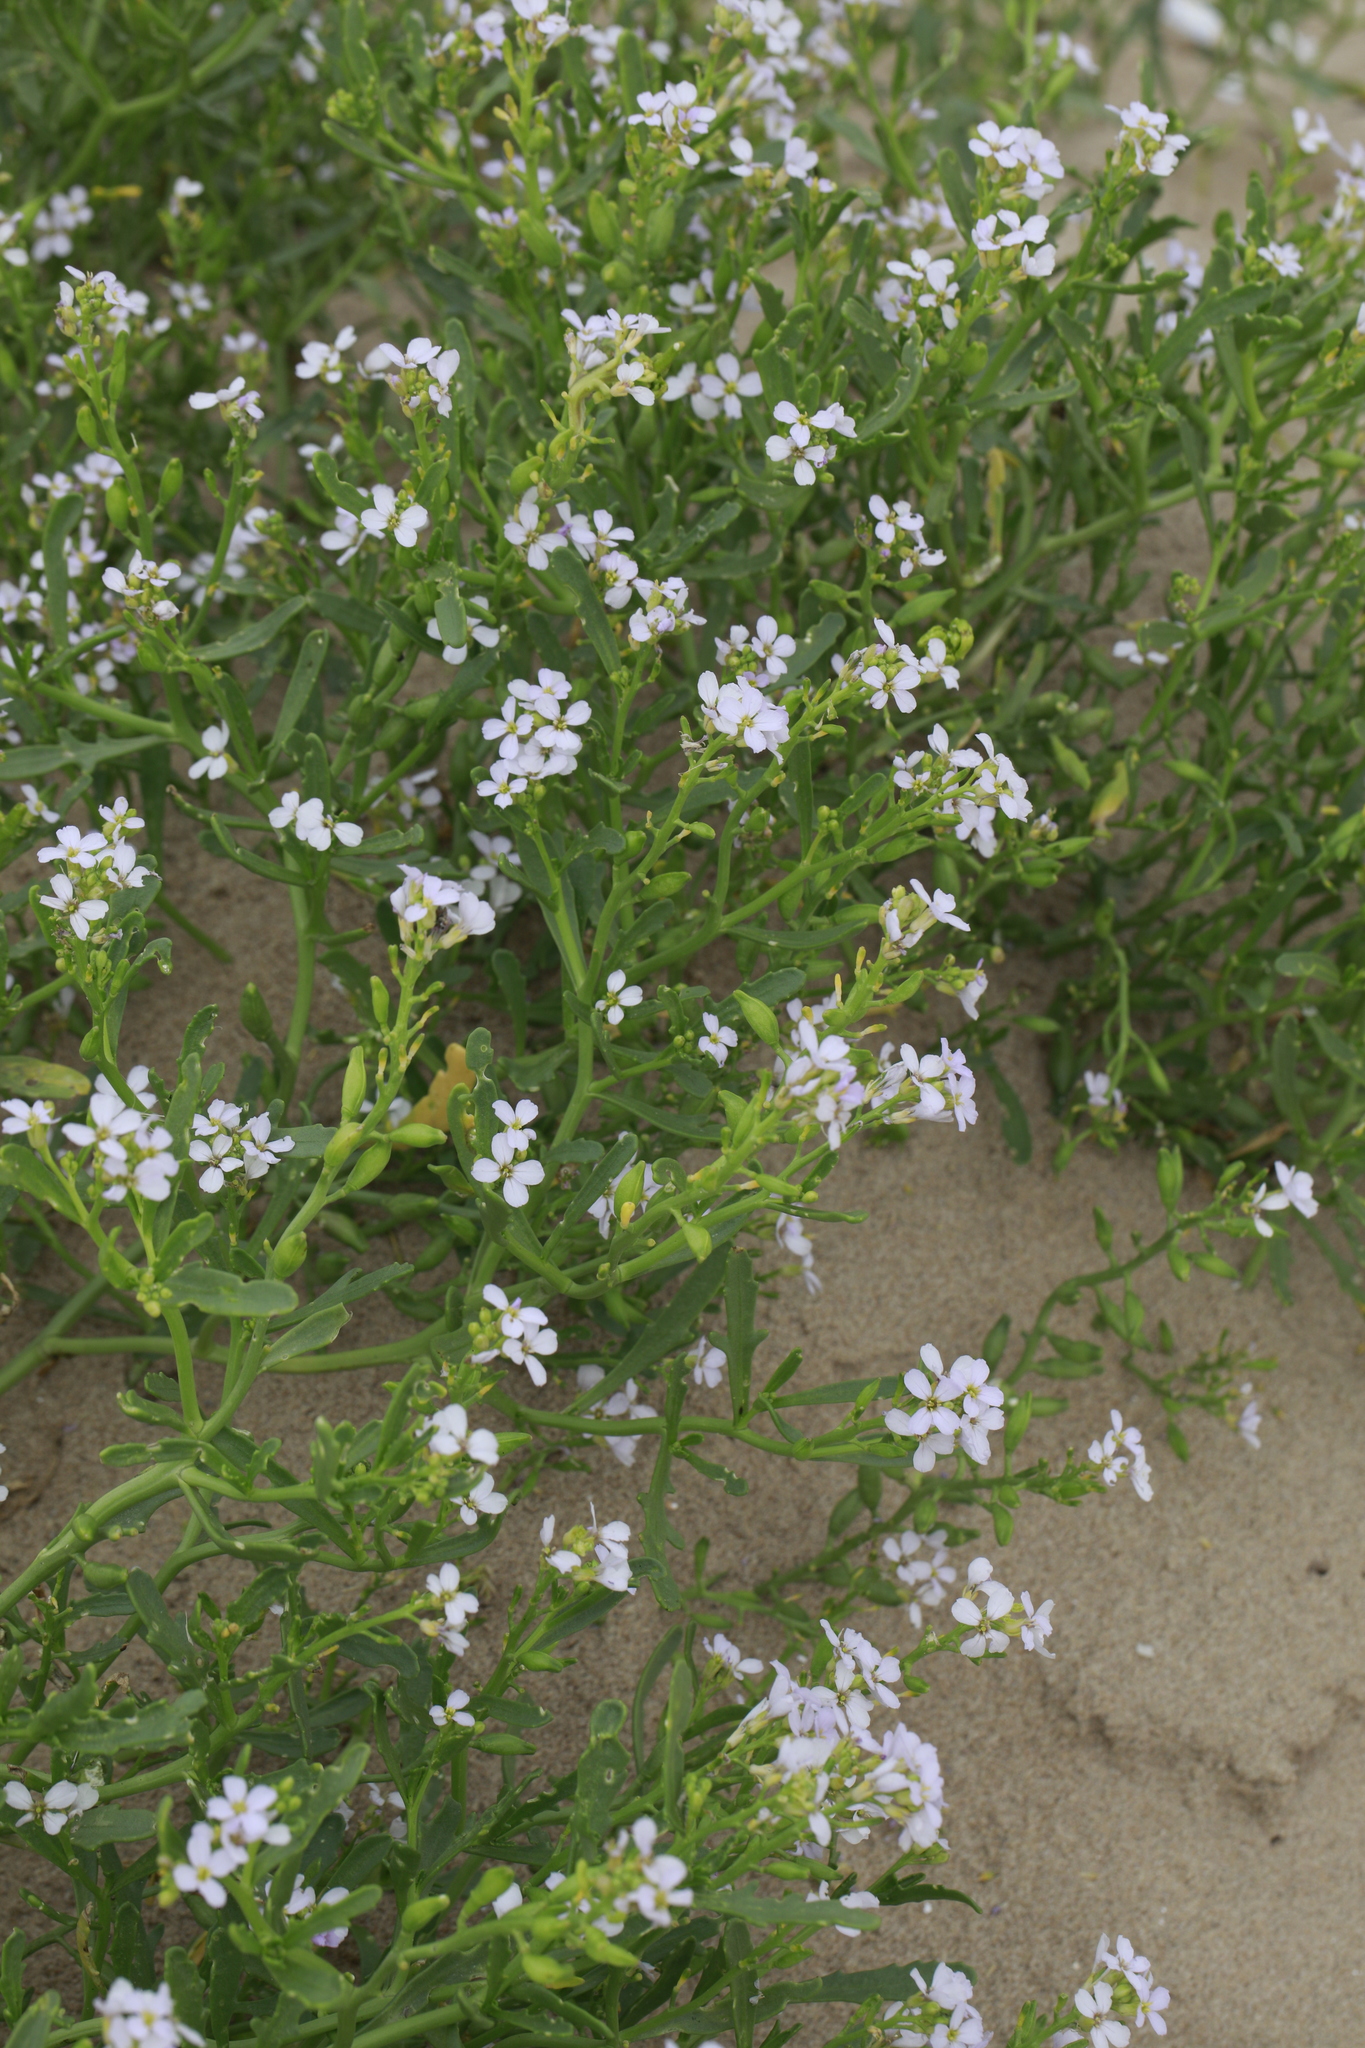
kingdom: Plantae
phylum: Tracheophyta
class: Magnoliopsida
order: Brassicales
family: Brassicaceae
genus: Cakile
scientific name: Cakile maritima
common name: Sea rocket
